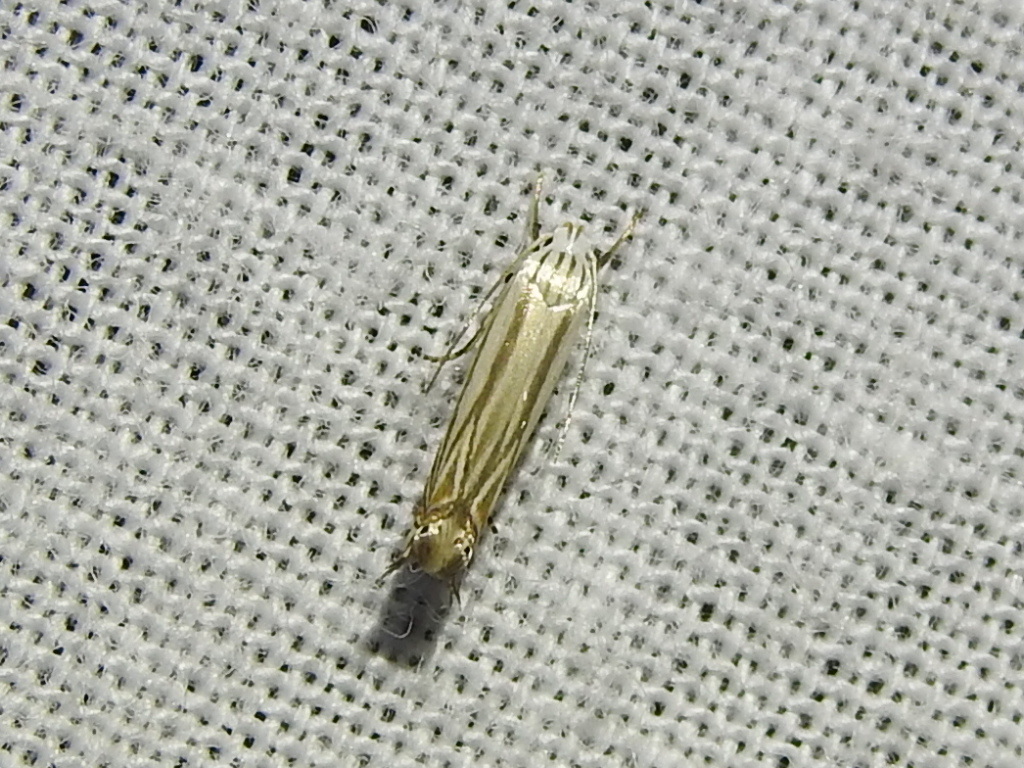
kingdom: Animalia
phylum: Arthropoda
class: Insecta
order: Lepidoptera
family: Gelechiidae
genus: Polyhymno
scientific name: Polyhymno luteostrigella
